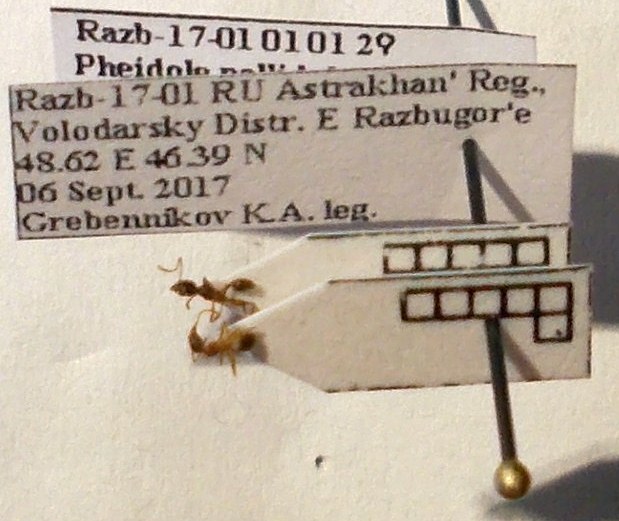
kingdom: Animalia
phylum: Arthropoda
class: Insecta
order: Hymenoptera
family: Formicidae
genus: Pheidole
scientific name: Pheidole pallidula
